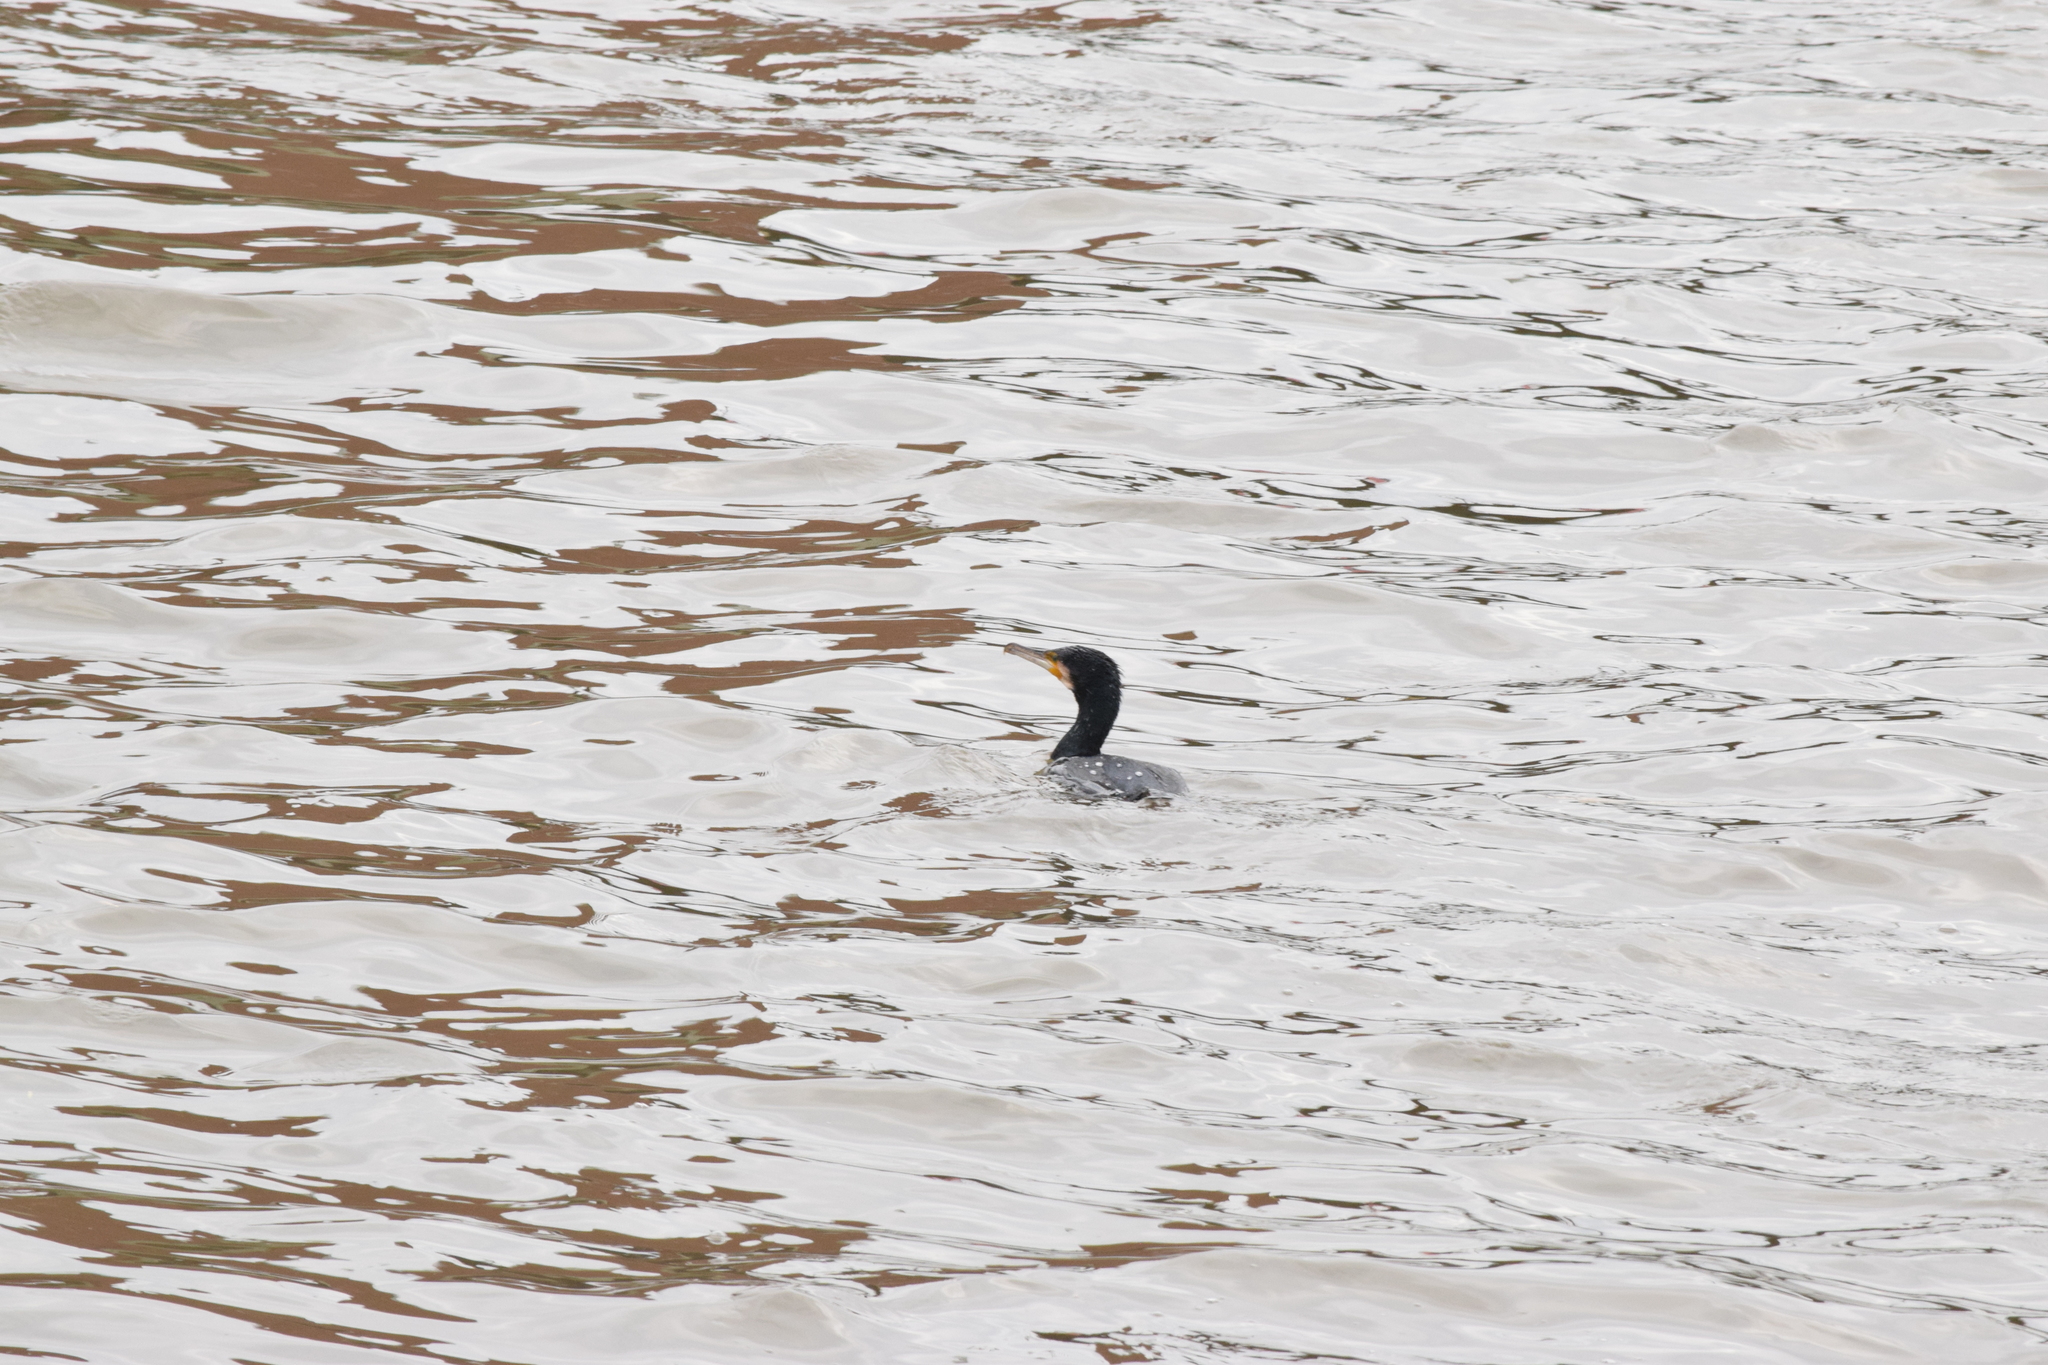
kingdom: Animalia
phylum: Chordata
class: Aves
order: Suliformes
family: Phalacrocoracidae
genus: Phalacrocorax
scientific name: Phalacrocorax carbo
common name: Great cormorant
